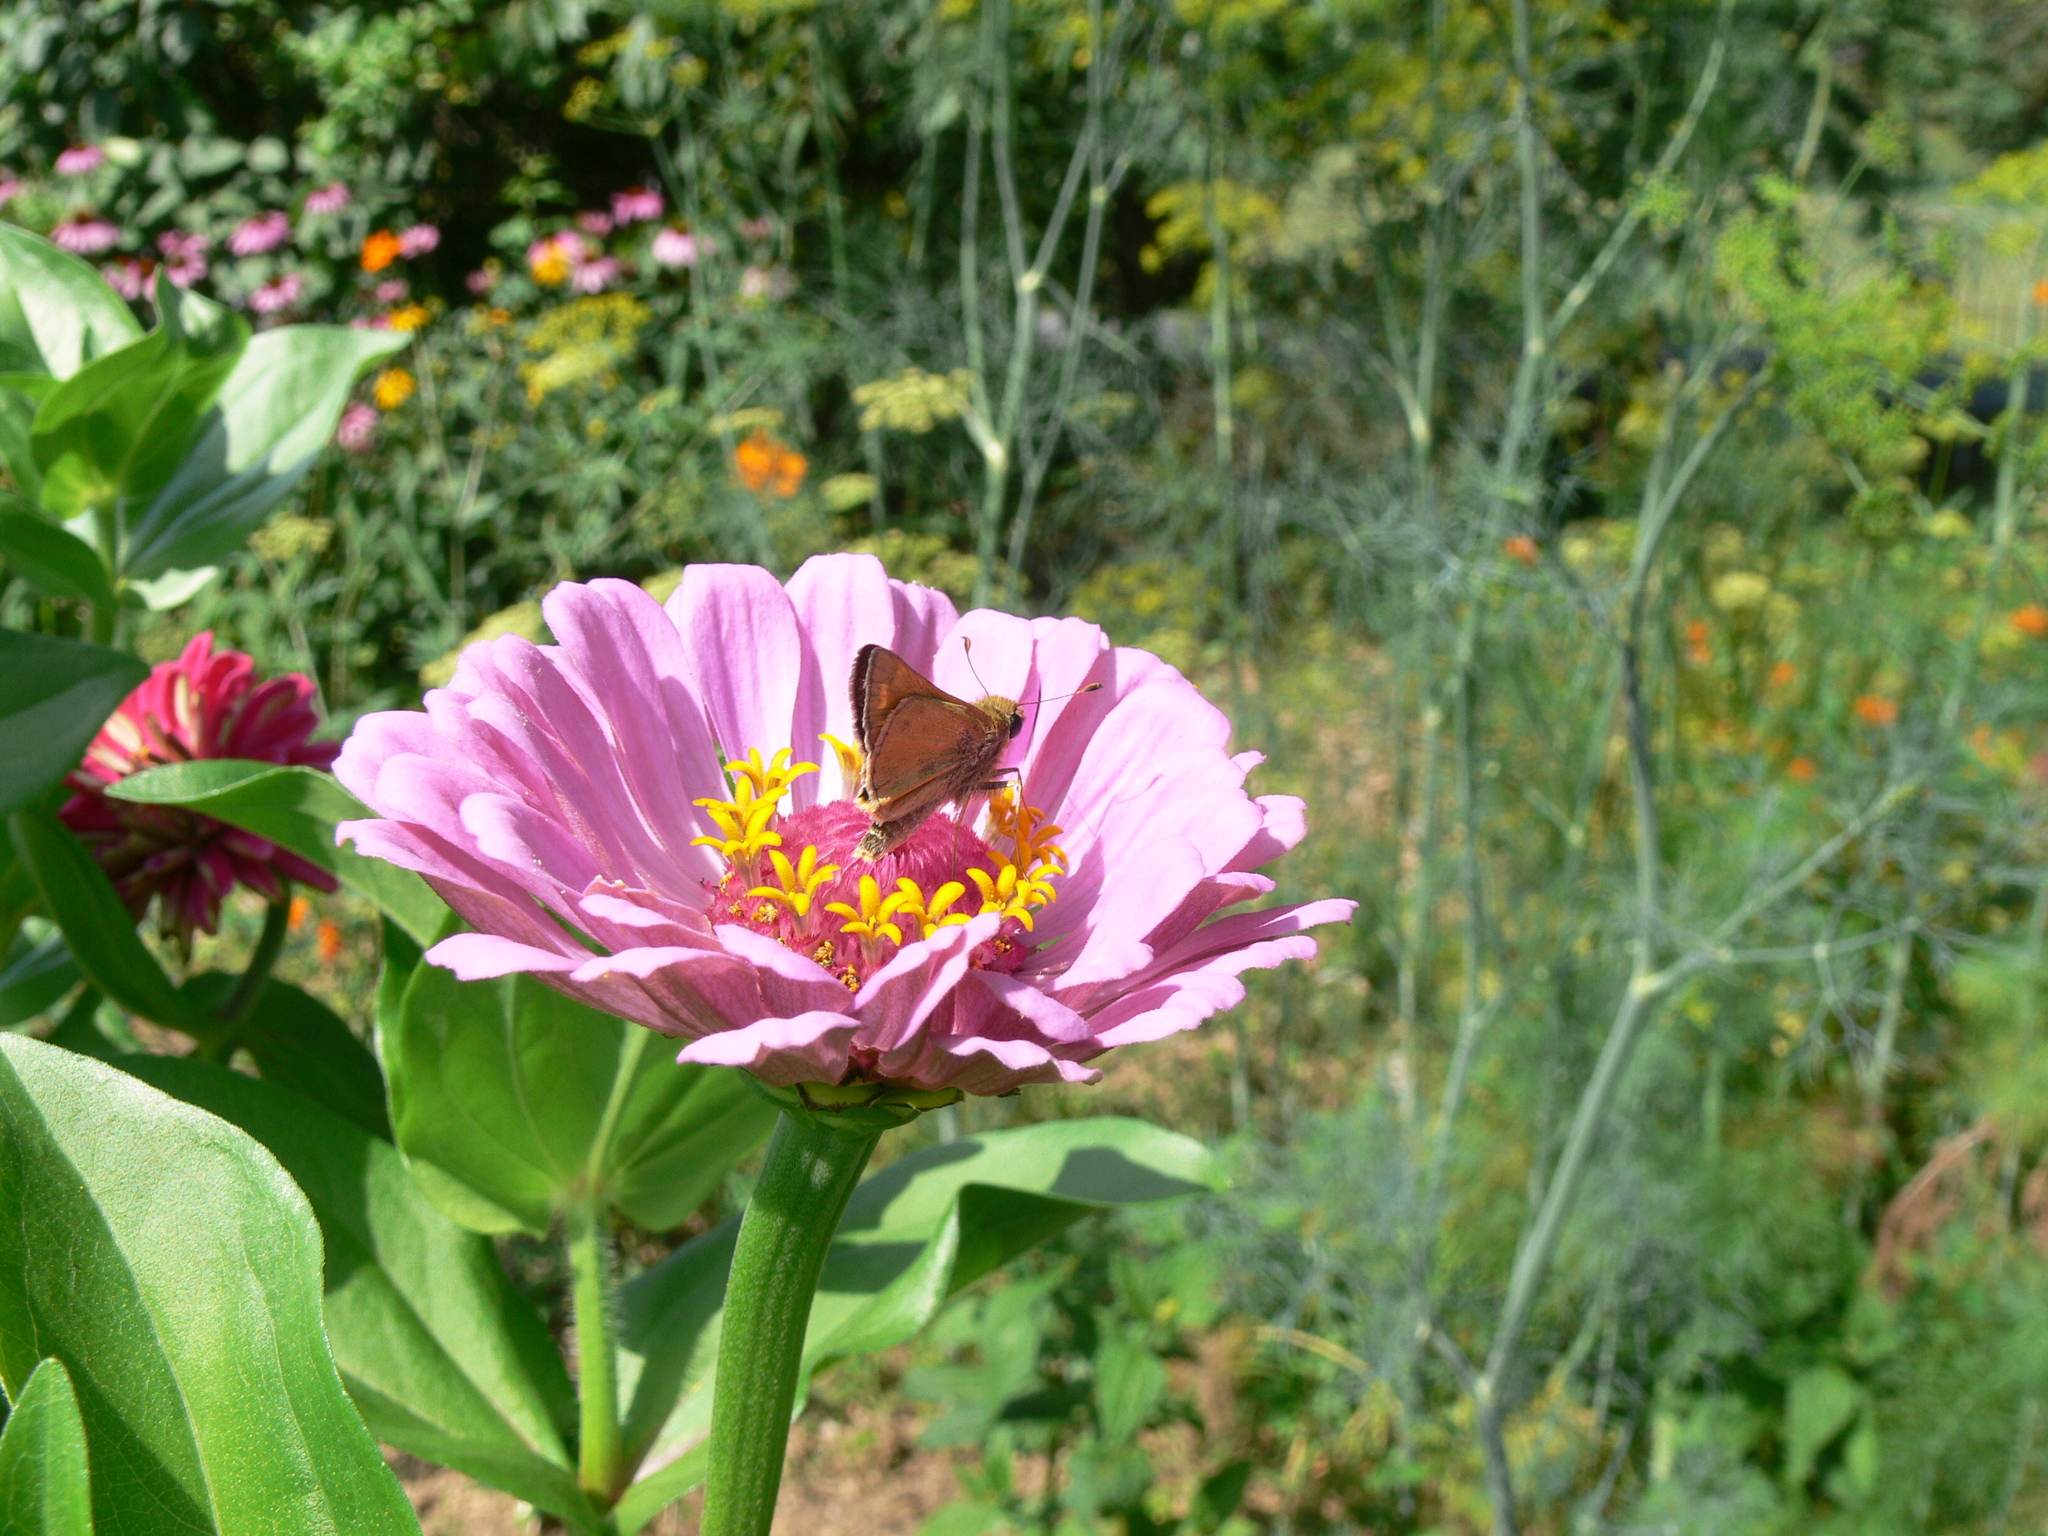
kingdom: Animalia
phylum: Arthropoda
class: Insecta
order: Lepidoptera
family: Hesperiidae
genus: Atalopedes
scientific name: Atalopedes
